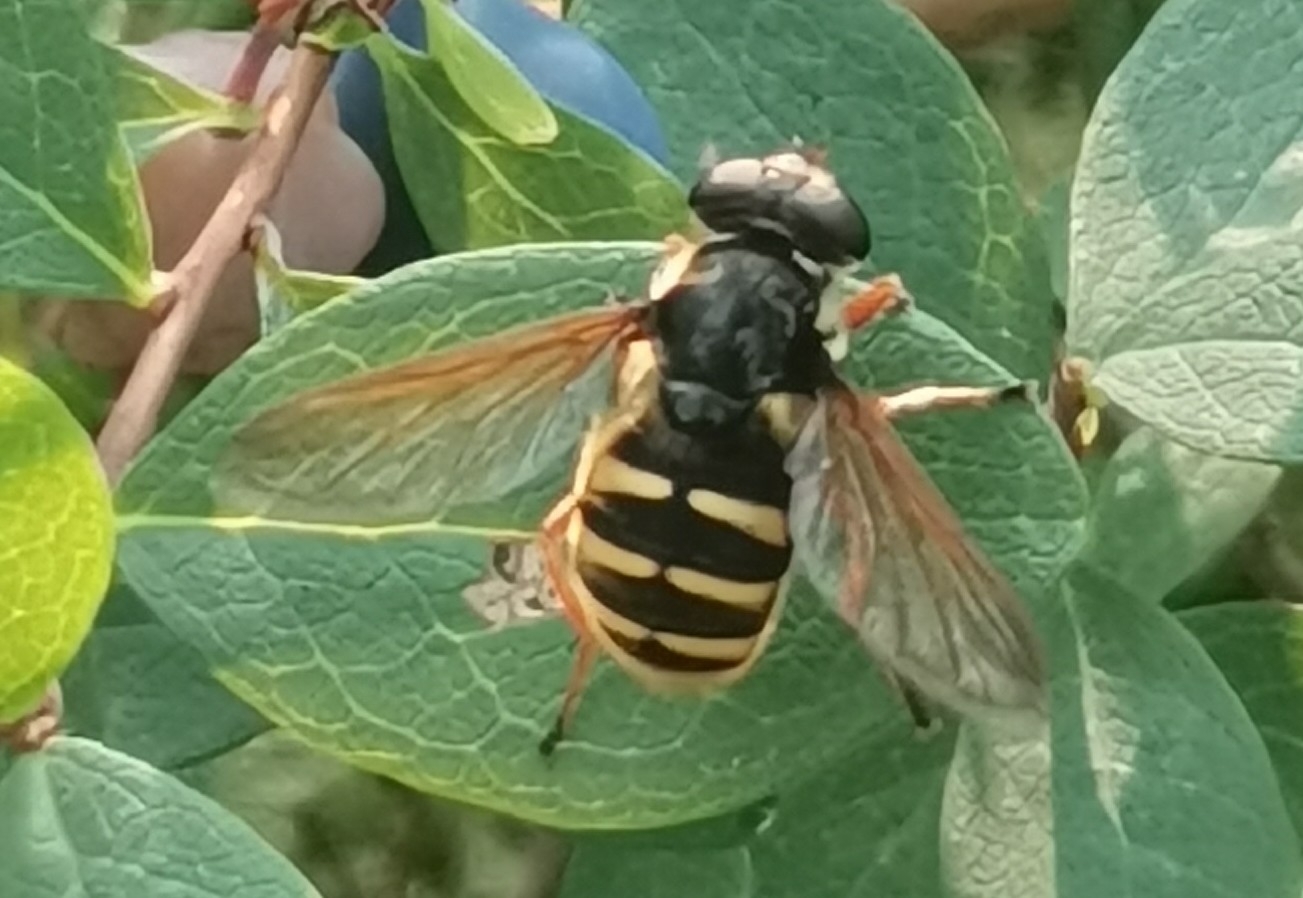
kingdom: Animalia
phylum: Arthropoda
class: Insecta
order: Diptera
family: Syrphidae
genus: Sericomyia
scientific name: Sericomyia silentis
